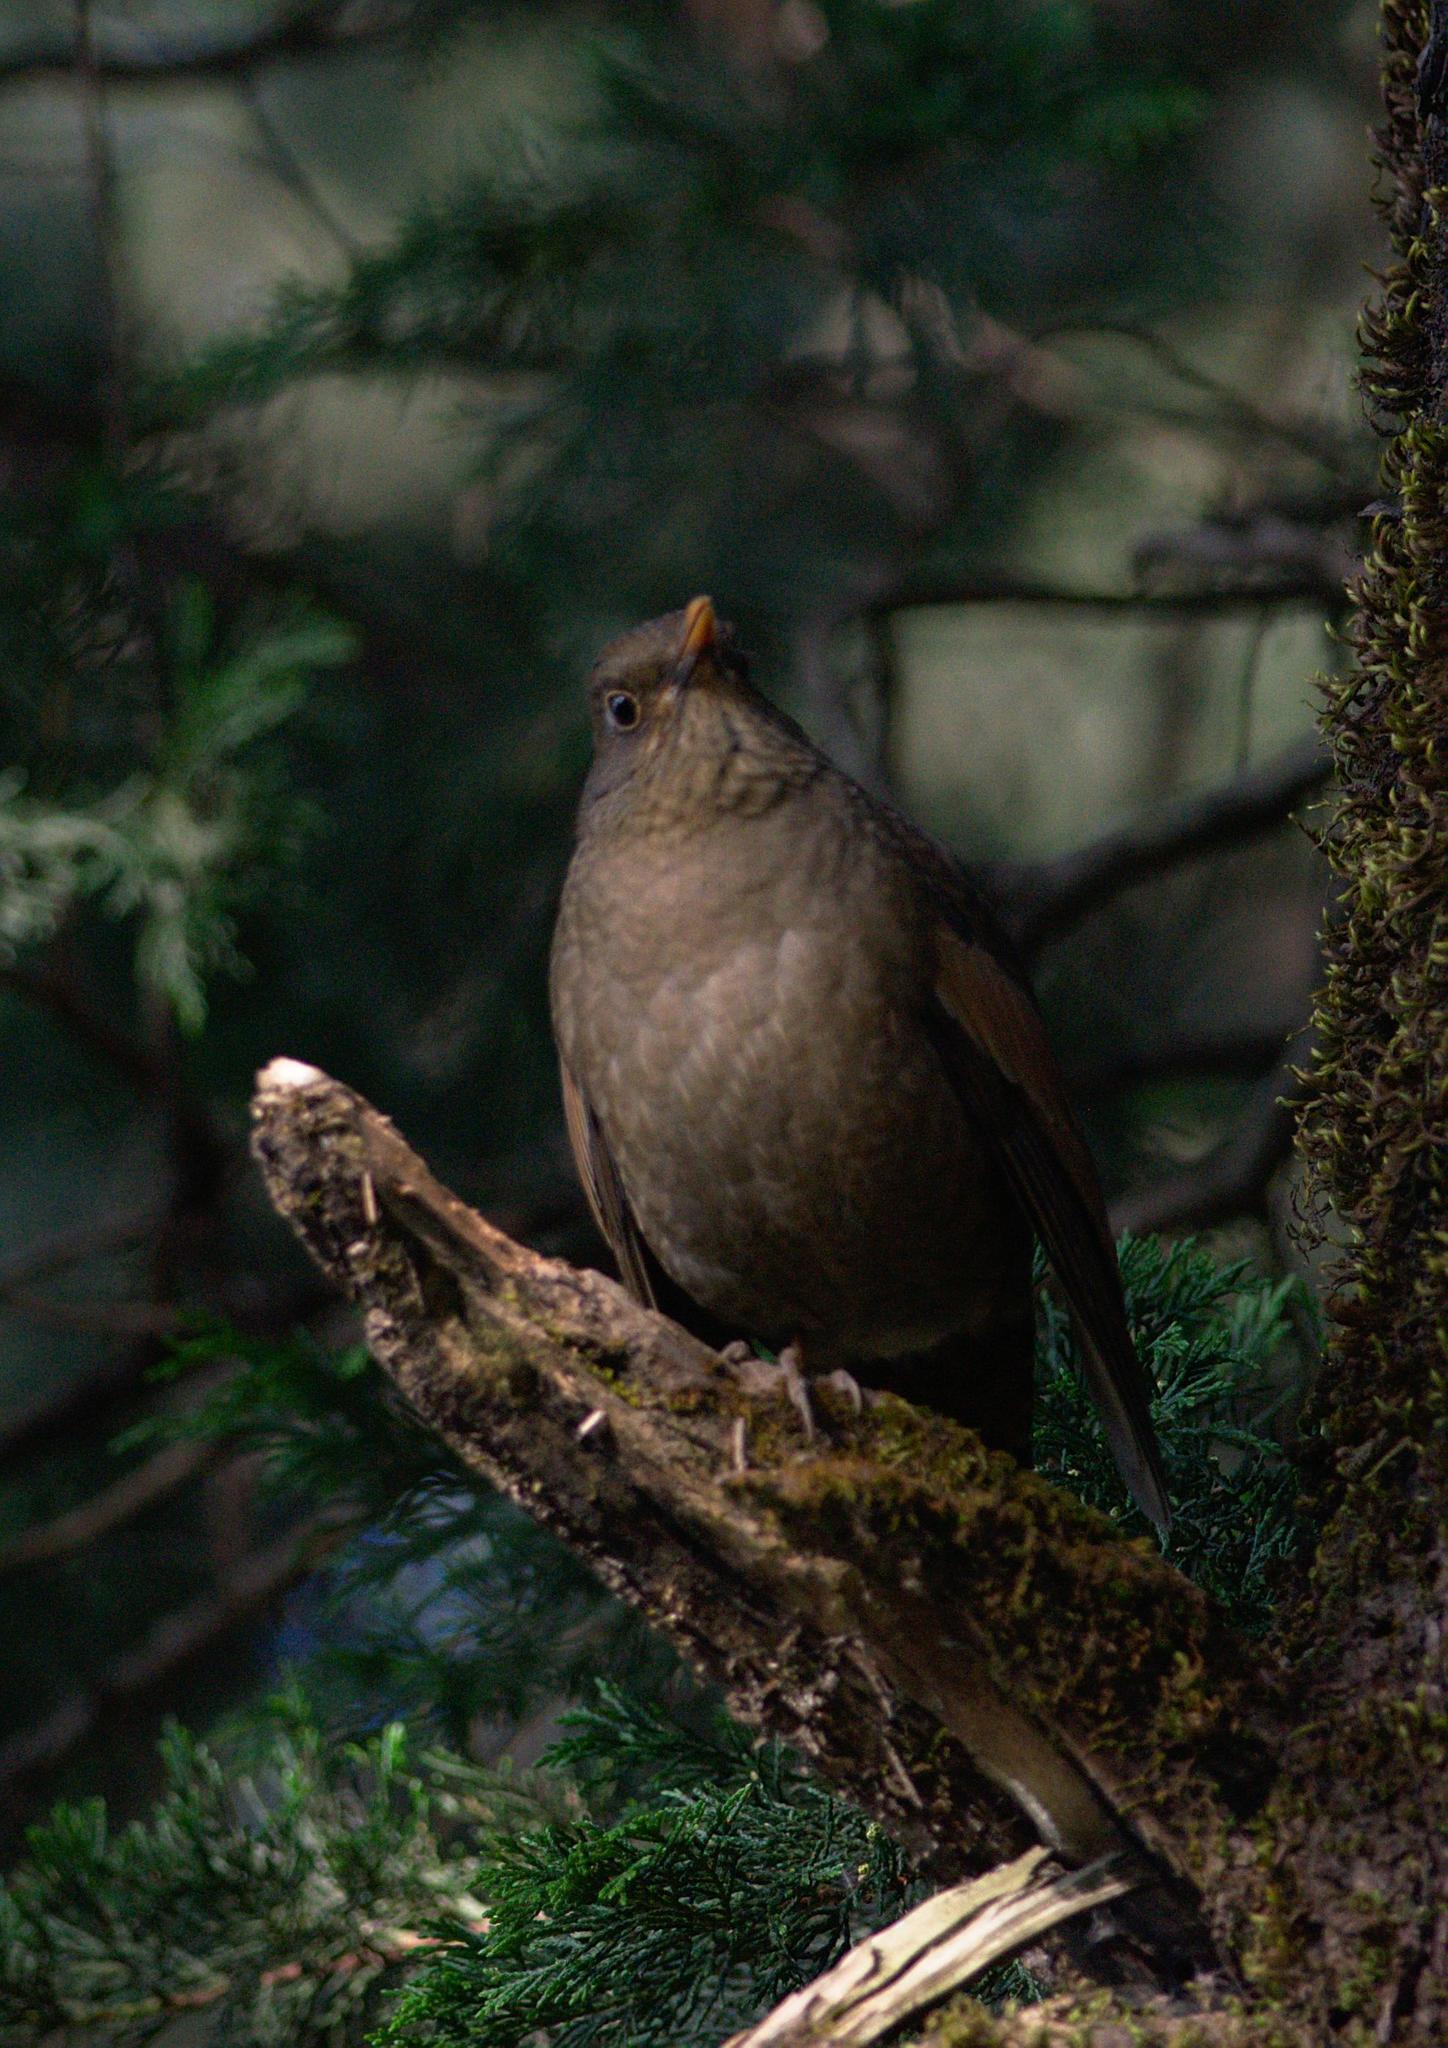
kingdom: Animalia
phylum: Chordata
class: Aves
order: Passeriformes
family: Turdidae
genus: Turdus
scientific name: Turdus boulboul
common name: Grey-winged blackbird
